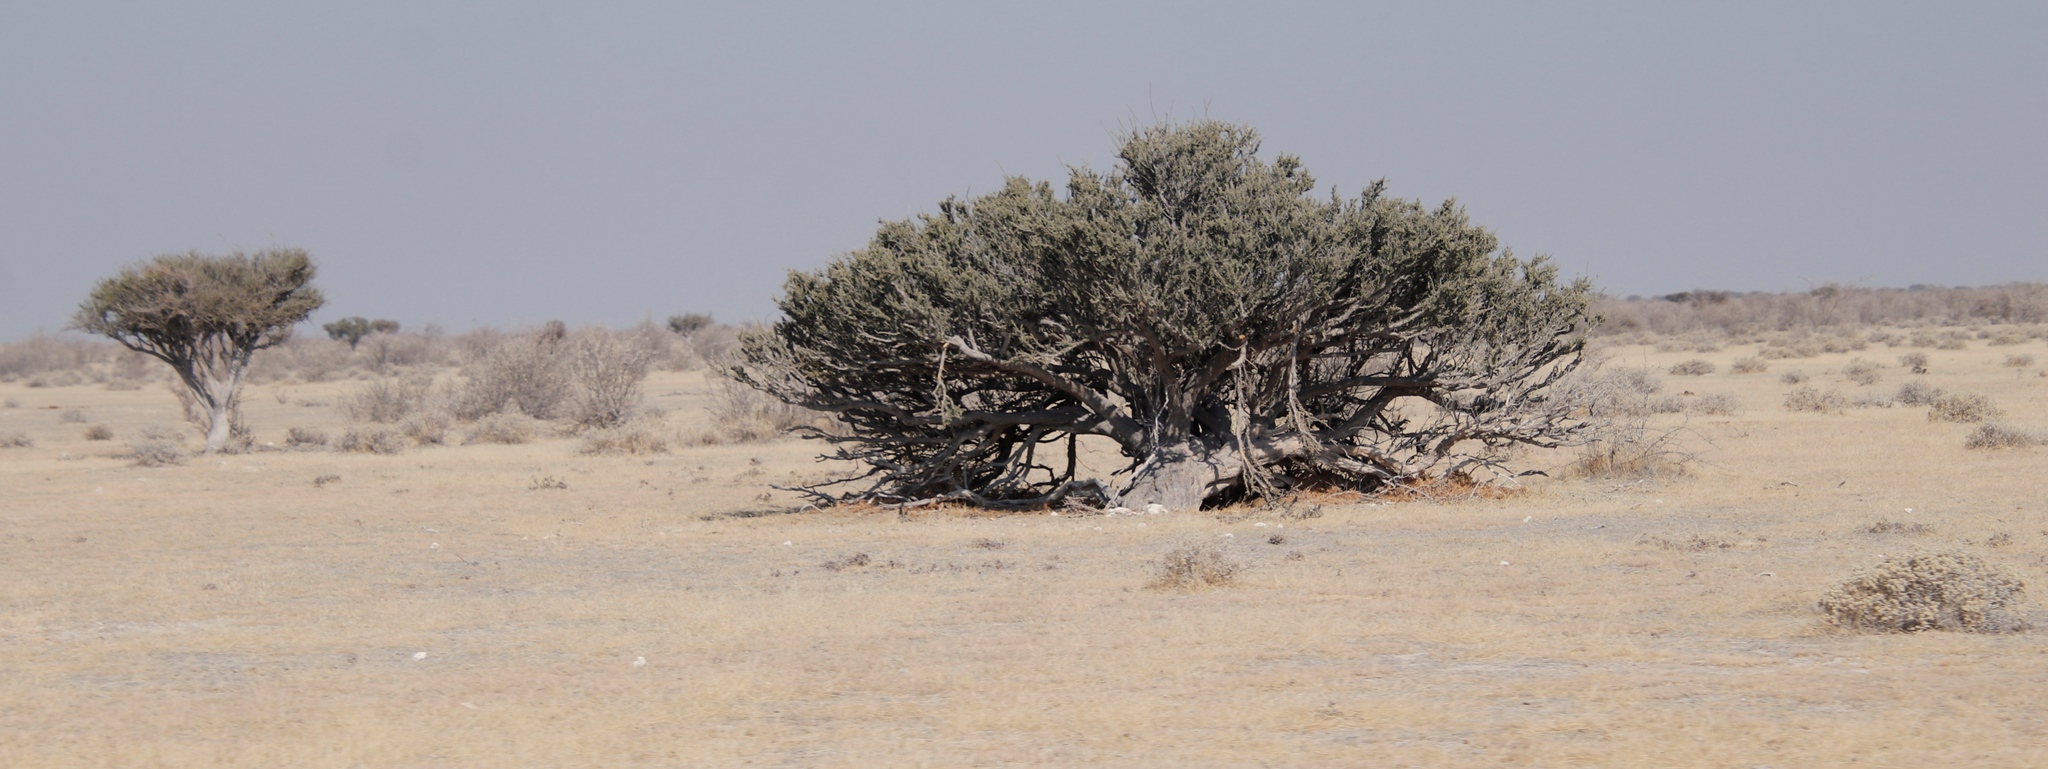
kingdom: Plantae
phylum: Tracheophyta
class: Magnoliopsida
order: Brassicales
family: Capparaceae
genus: Boscia
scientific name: Boscia albitrunca
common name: Caper bush
